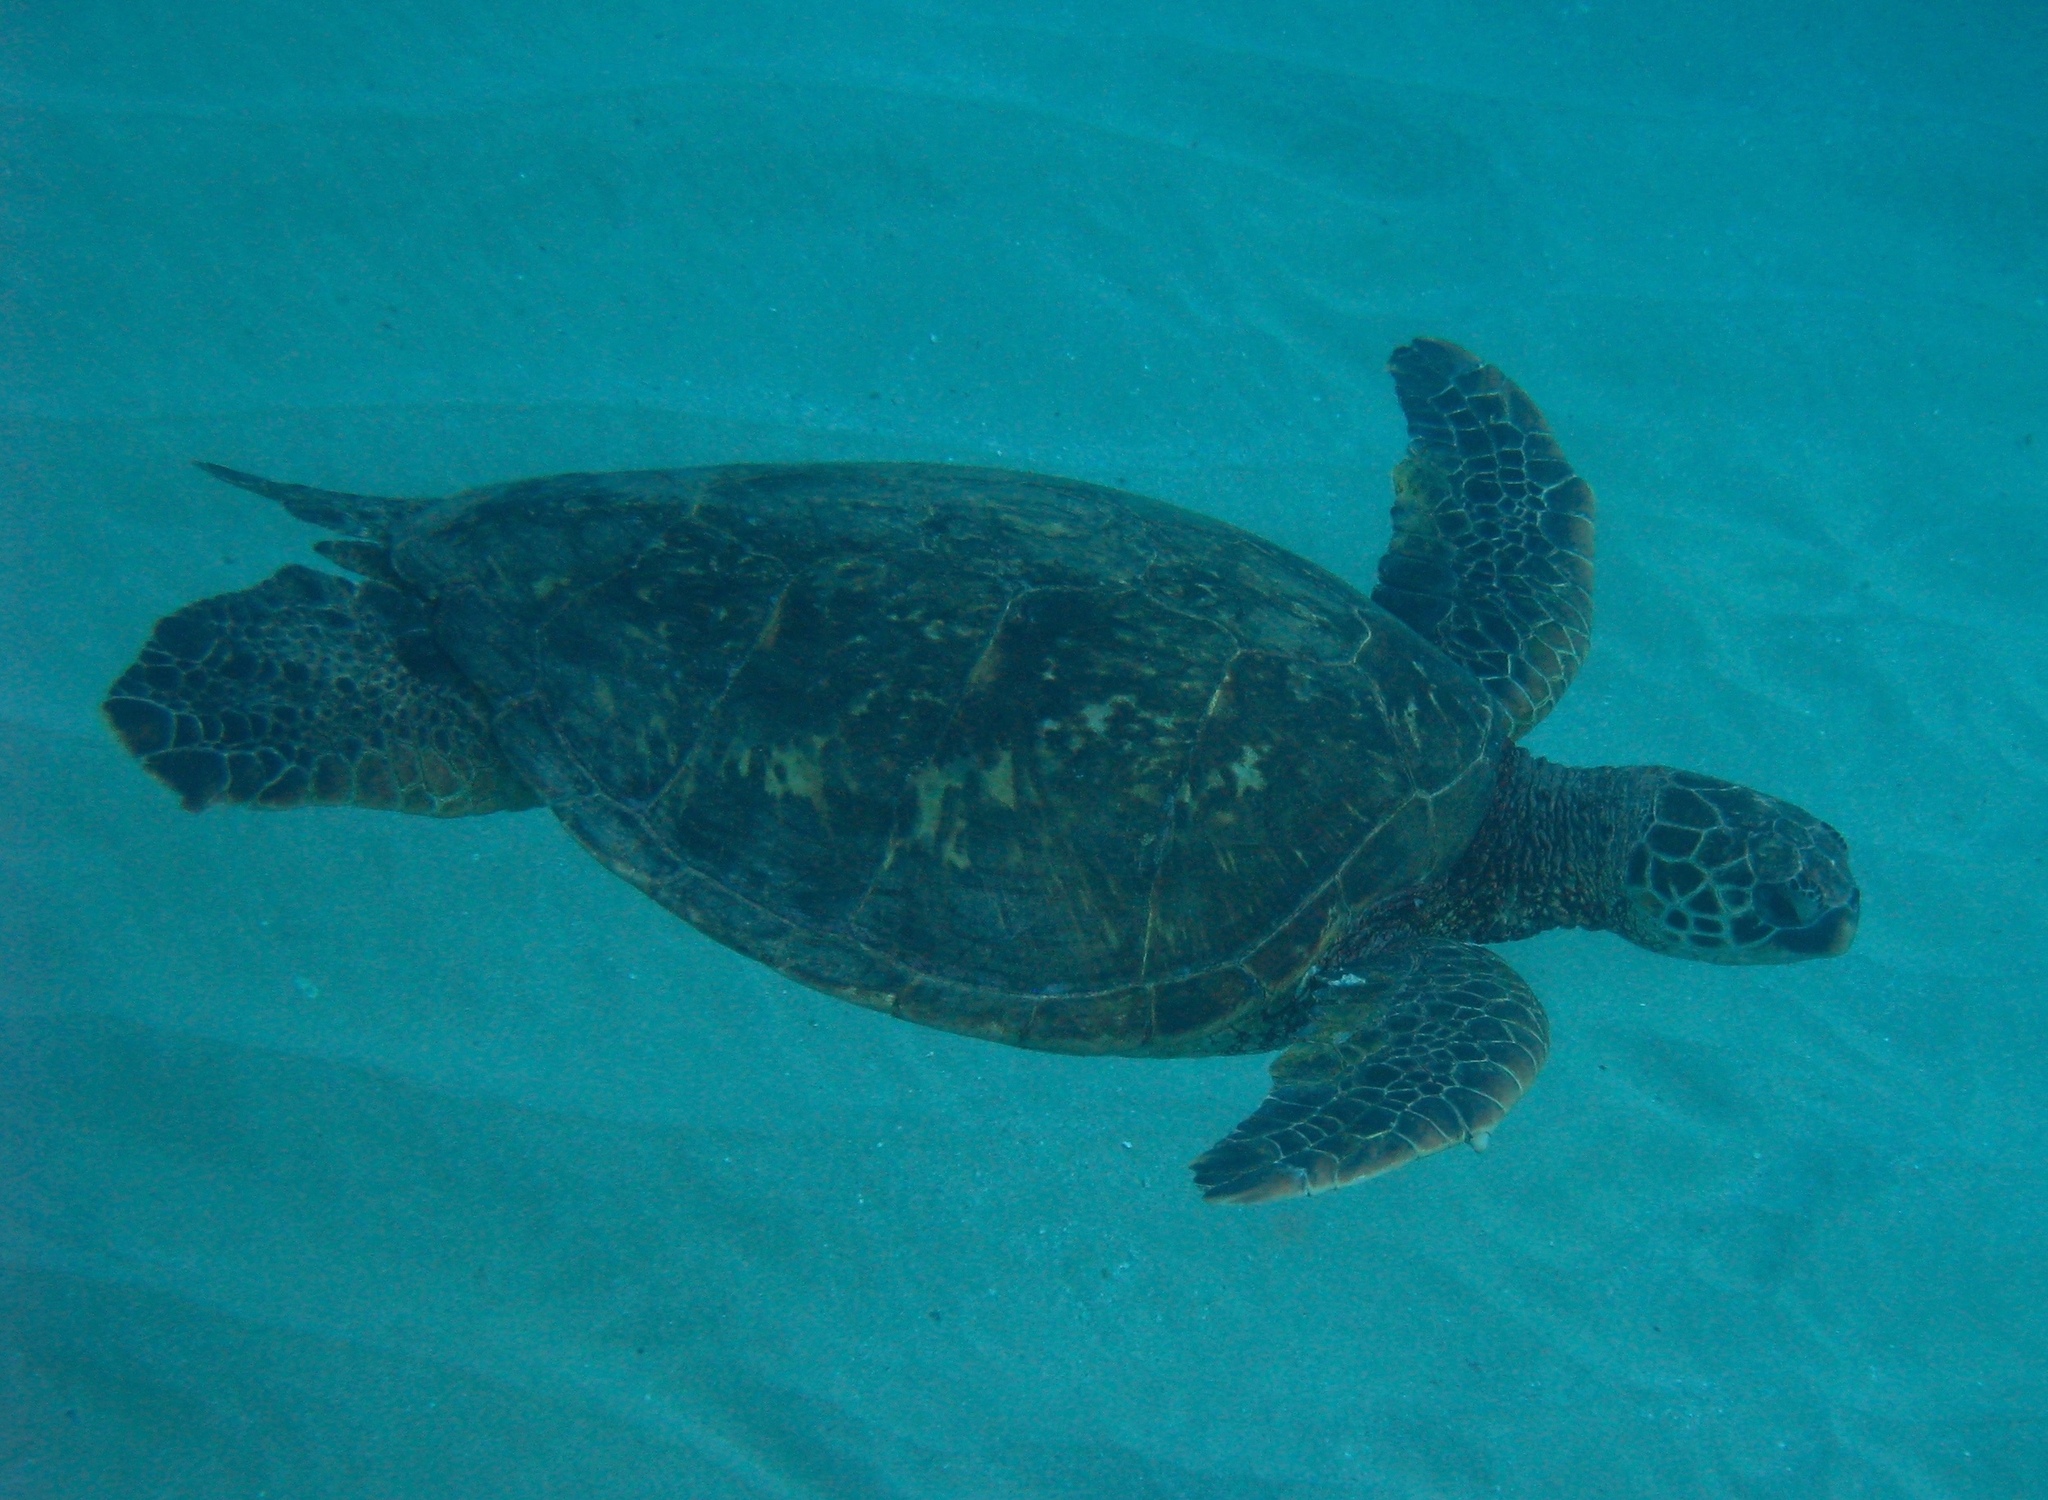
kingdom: Animalia
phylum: Chordata
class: Testudines
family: Cheloniidae
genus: Chelonia
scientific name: Chelonia mydas
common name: Green turtle
